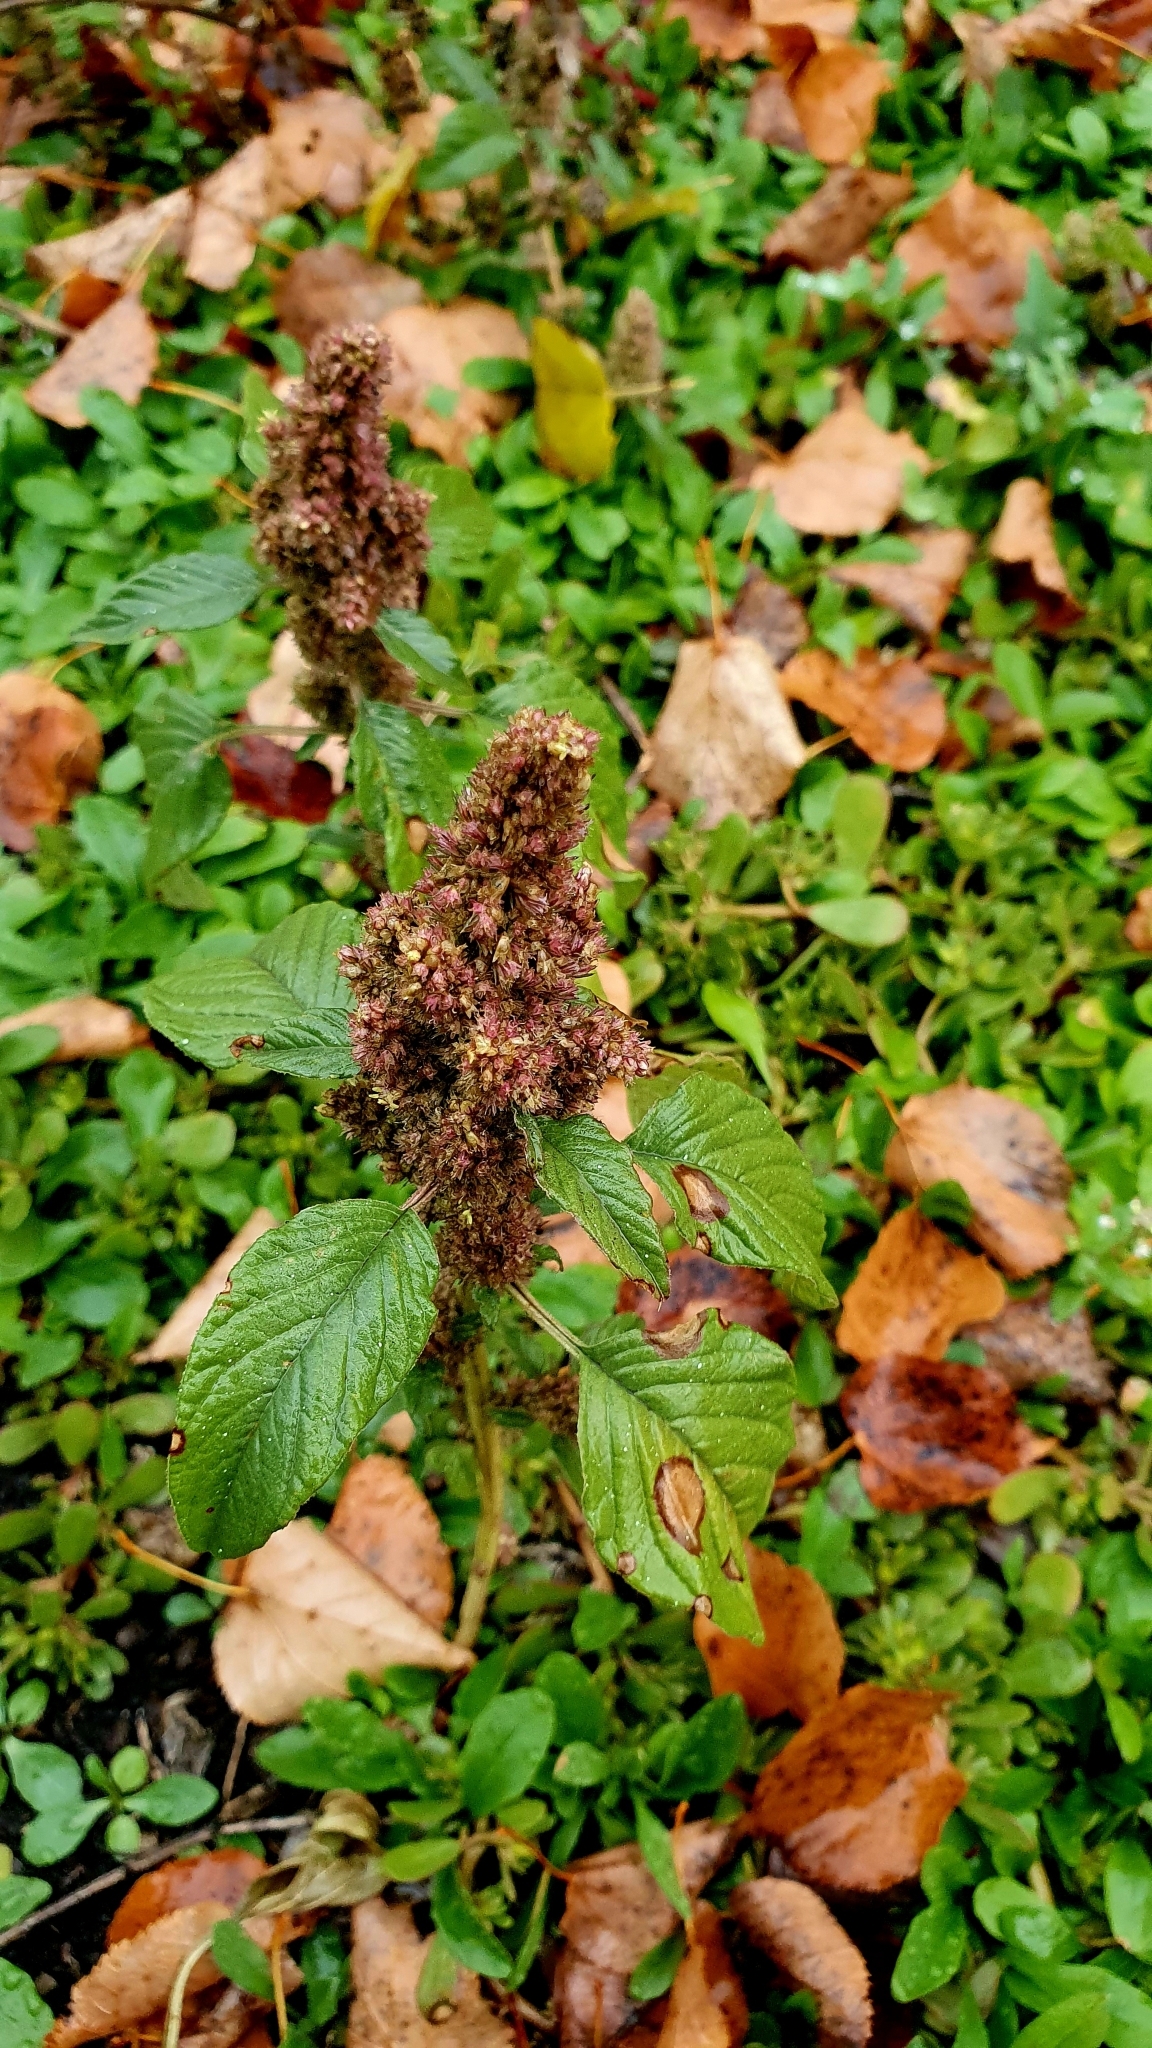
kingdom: Plantae
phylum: Tracheophyta
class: Magnoliopsida
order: Caryophyllales
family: Amaranthaceae
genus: Amaranthus
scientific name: Amaranthus retroflexus
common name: Redroot amaranth
